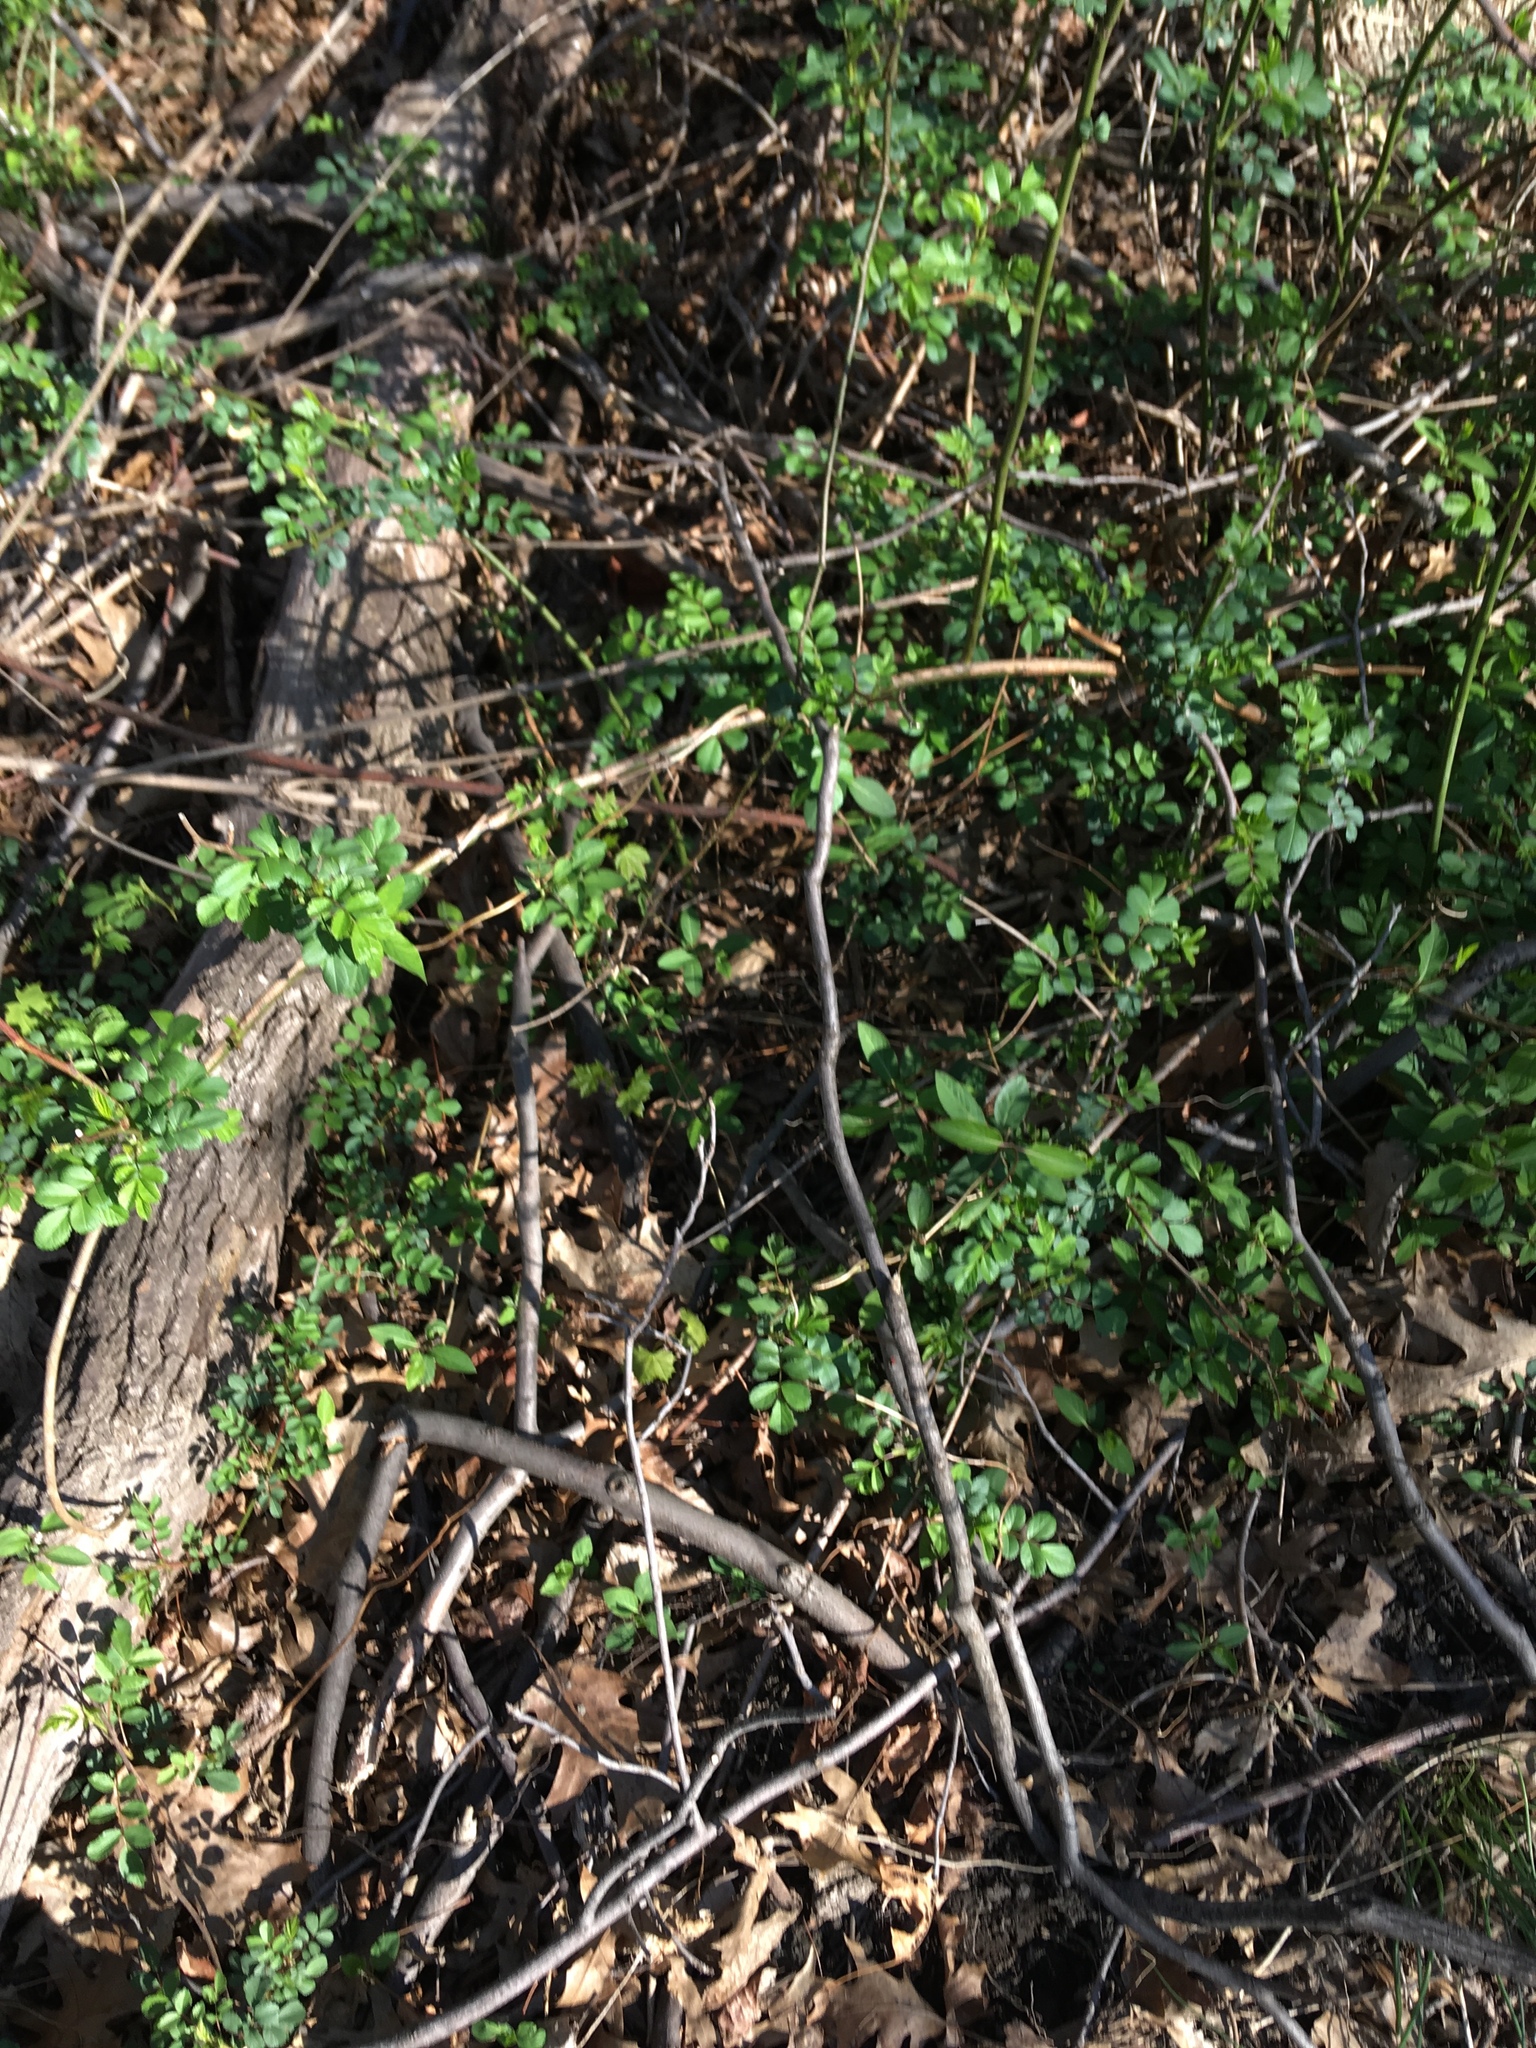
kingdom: Plantae
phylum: Tracheophyta
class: Magnoliopsida
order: Rosales
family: Rosaceae
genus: Rosa
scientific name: Rosa multiflora
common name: Multiflora rose
